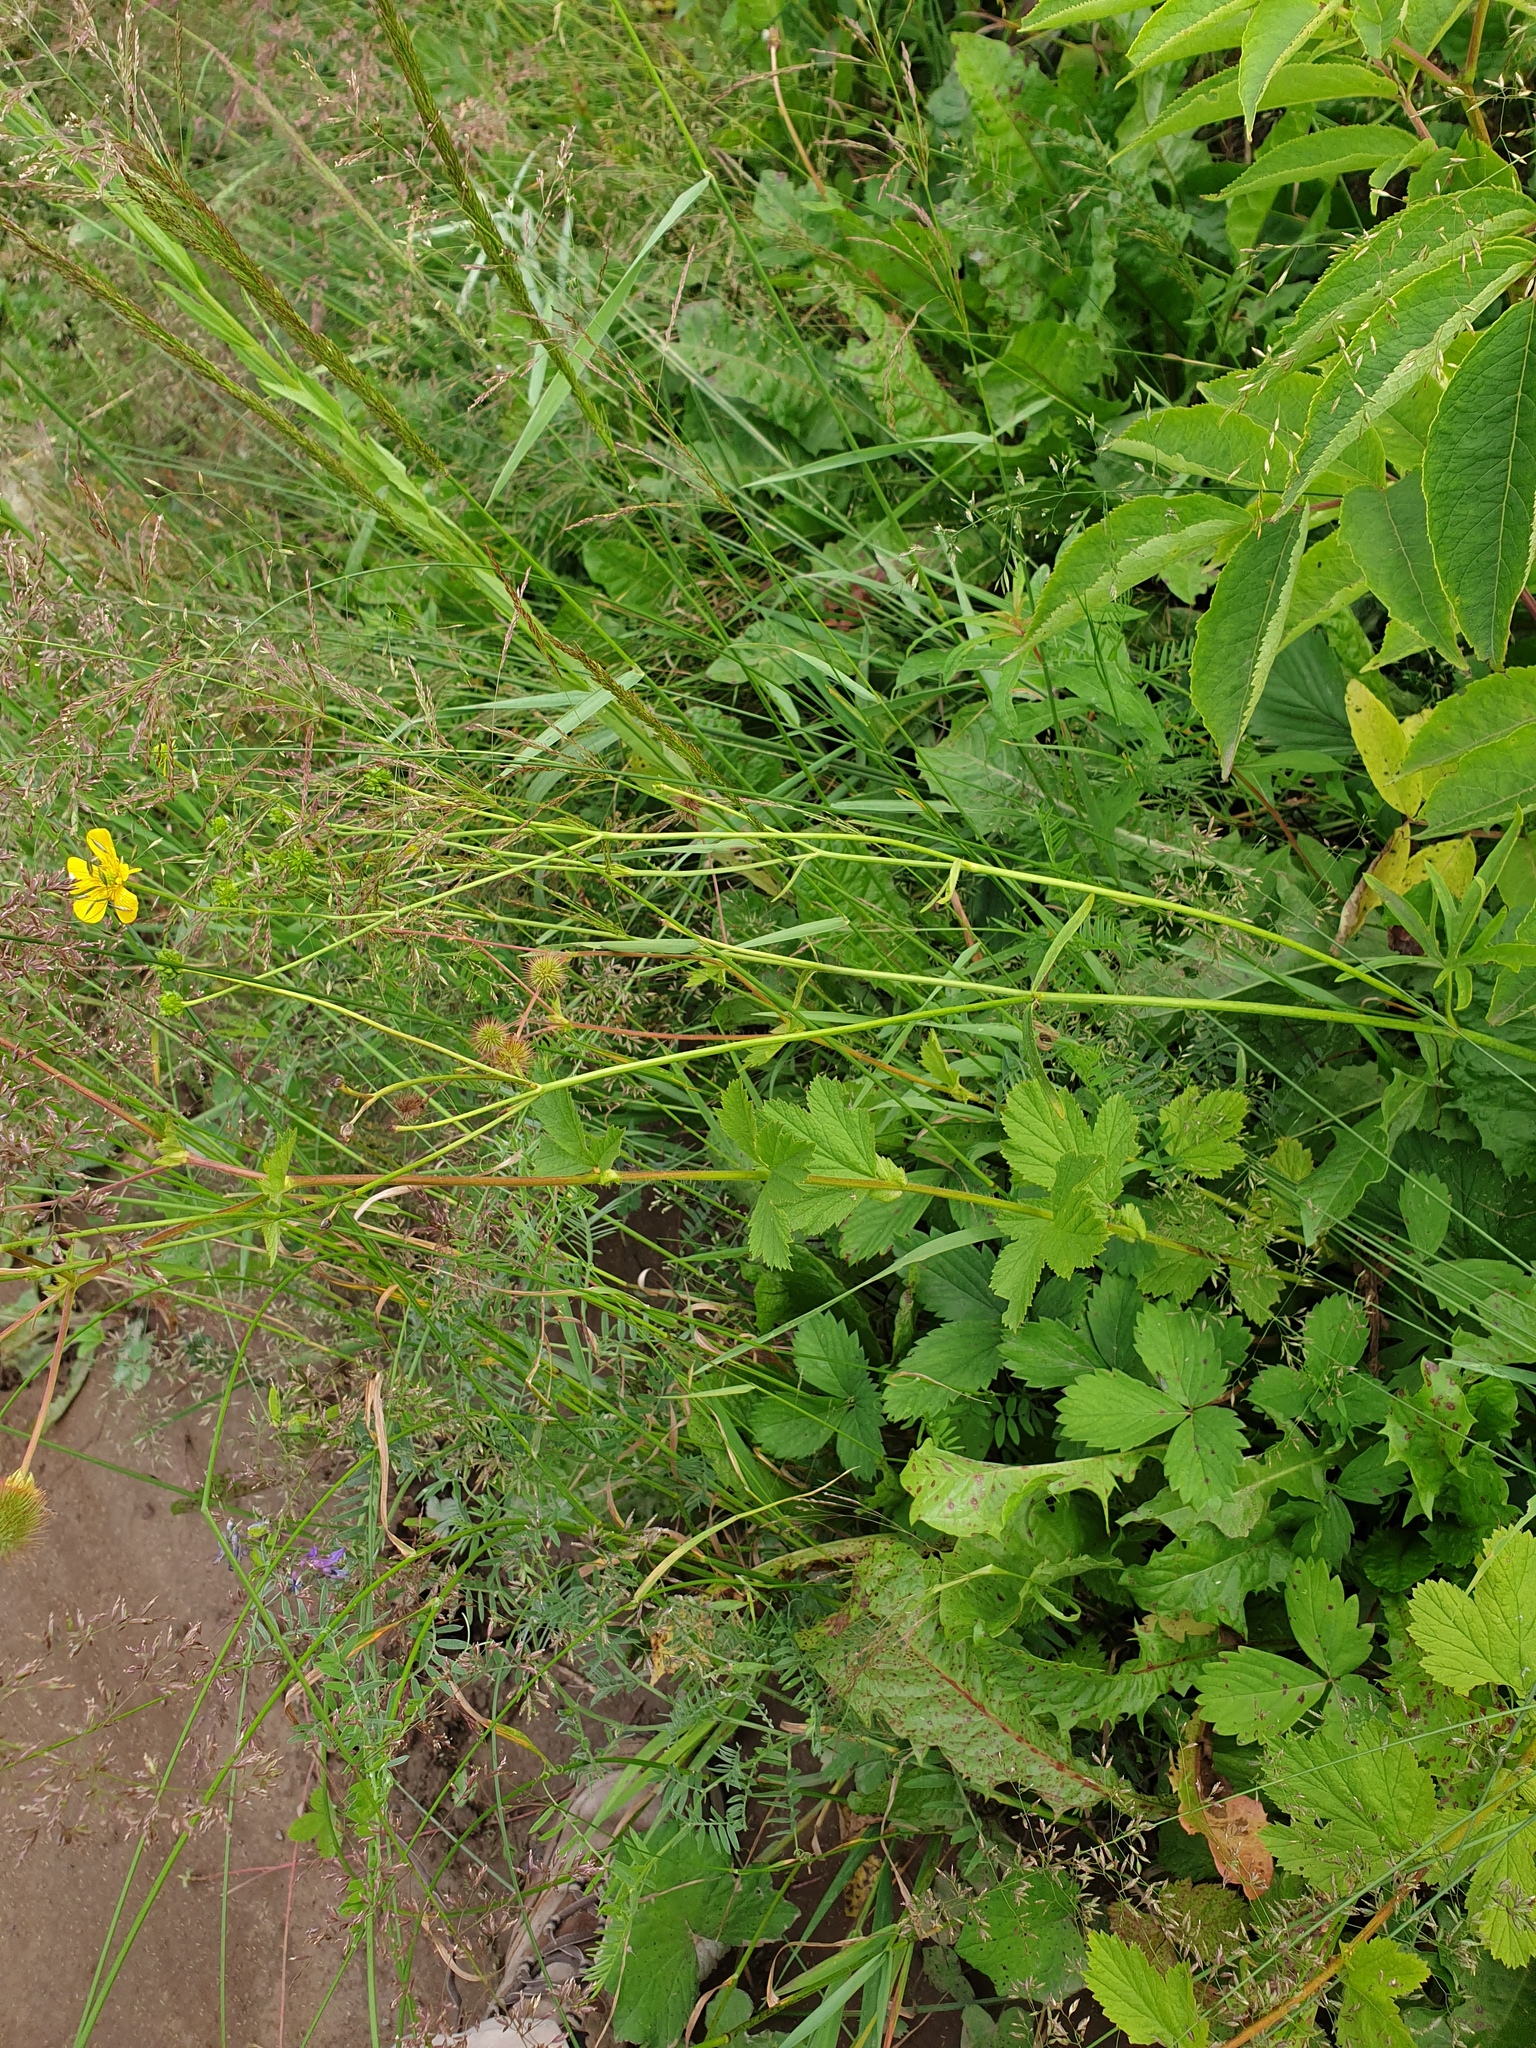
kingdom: Plantae
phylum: Tracheophyta
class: Magnoliopsida
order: Rosales
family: Rosaceae
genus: Geum
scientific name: Geum macrophyllum
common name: Large-leaved avens
